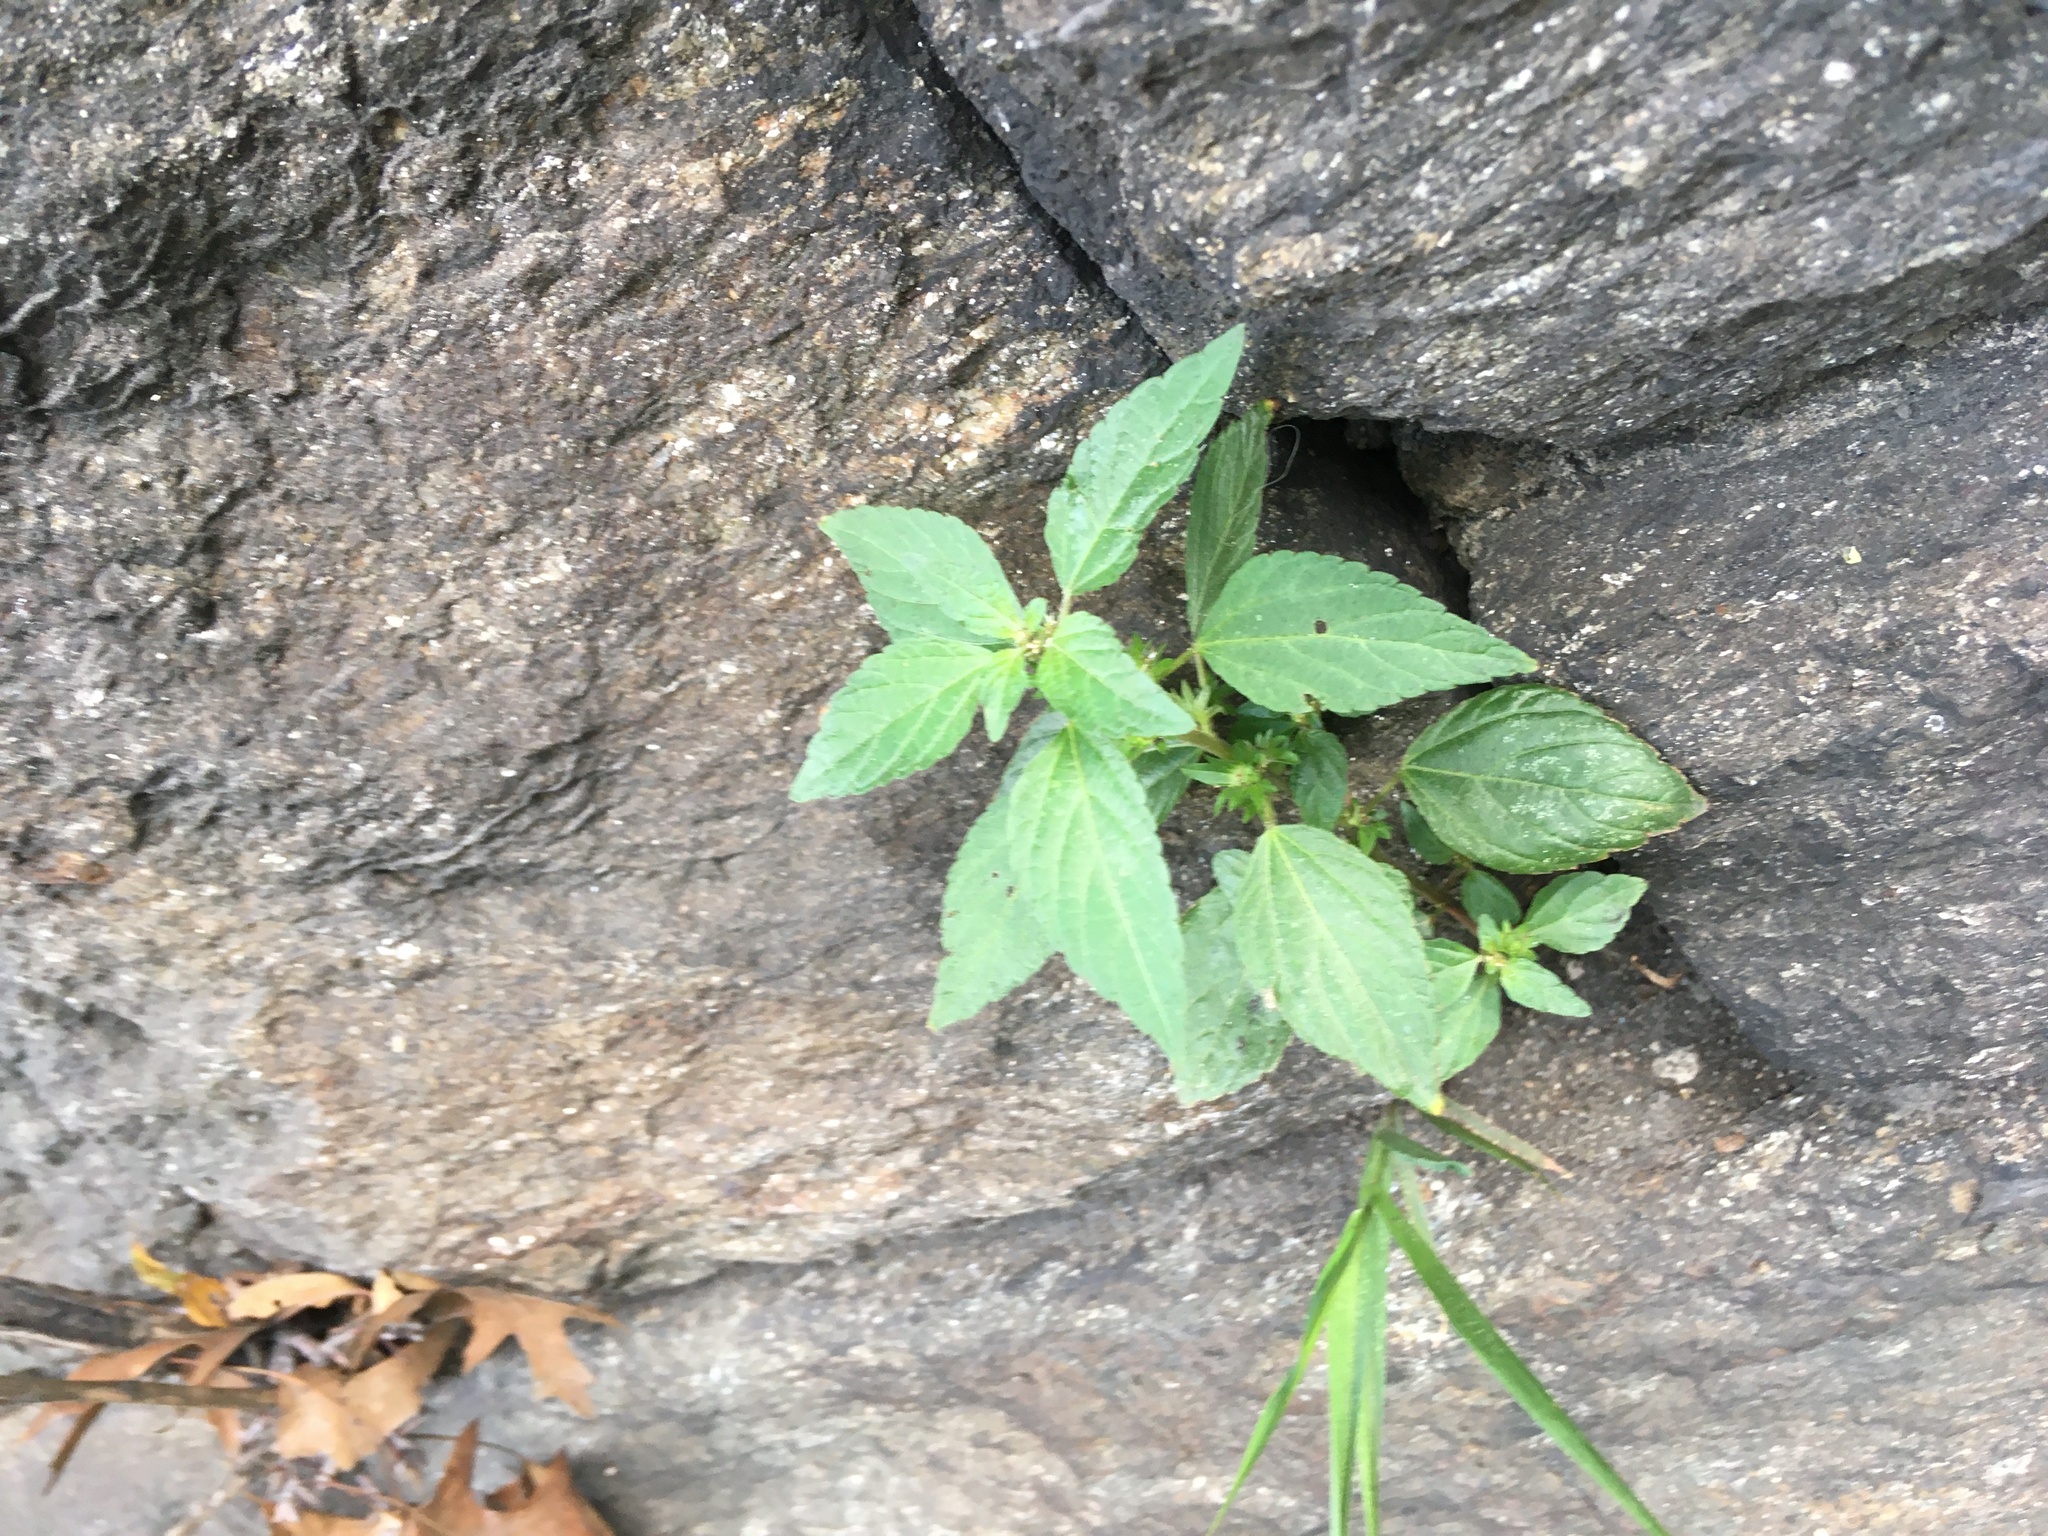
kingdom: Plantae
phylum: Tracheophyta
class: Magnoliopsida
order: Malpighiales
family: Euphorbiaceae
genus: Acalypha
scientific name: Acalypha rhomboidea
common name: Rhombic copperleaf
